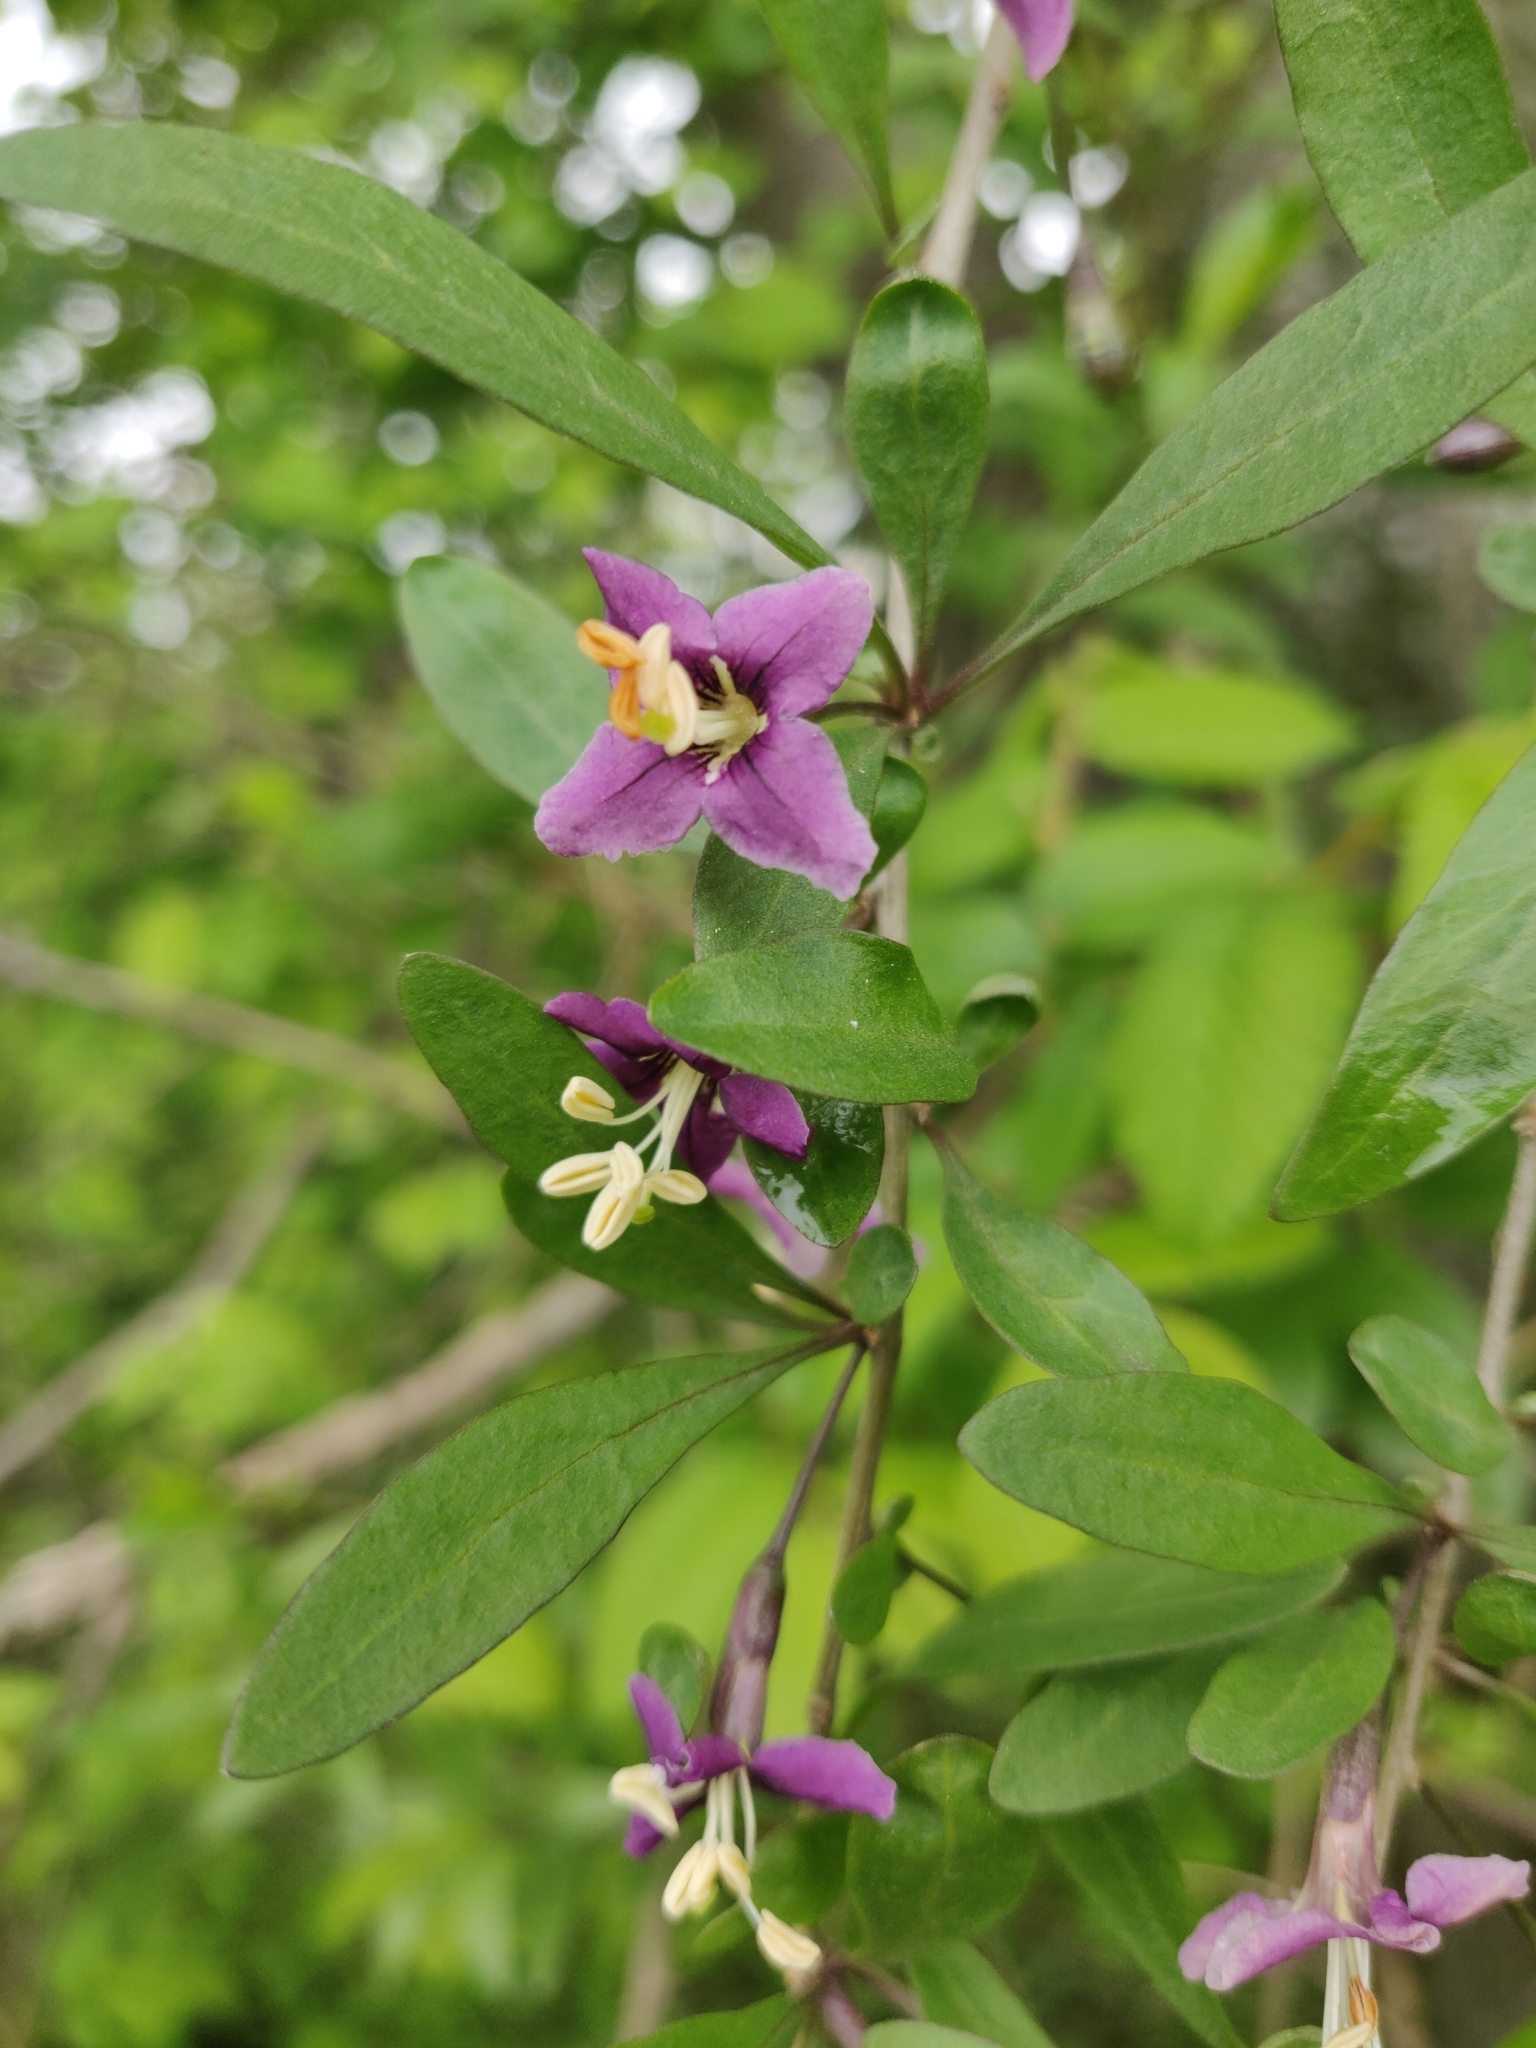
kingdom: Plantae
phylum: Tracheophyta
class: Magnoliopsida
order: Solanales
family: Solanaceae
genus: Lycium
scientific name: Lycium barbarum
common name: Duke of argyll's teaplant
